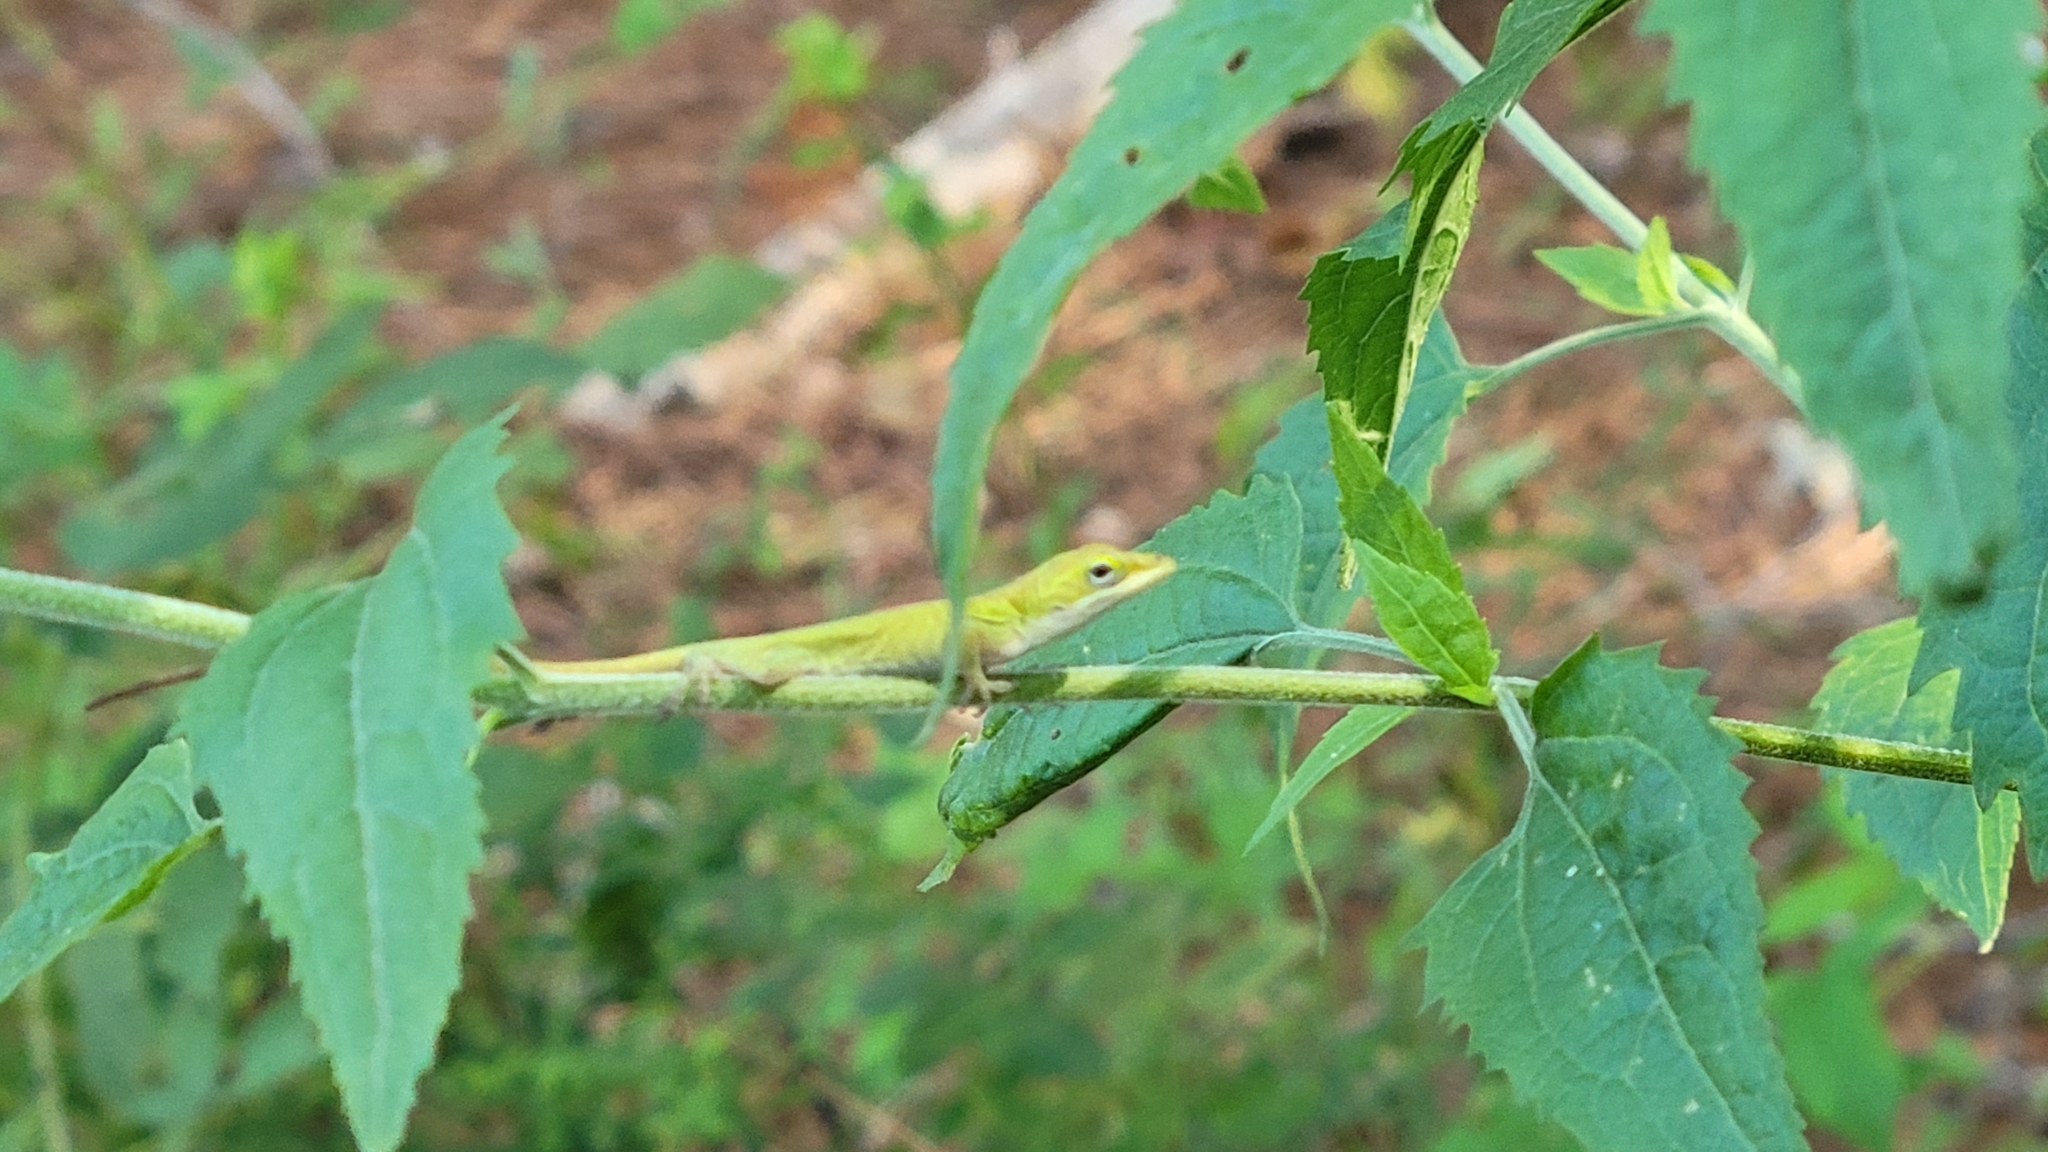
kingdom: Animalia
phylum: Chordata
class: Squamata
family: Dactyloidae
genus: Anolis
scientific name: Anolis carolinensis
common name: Green anole
